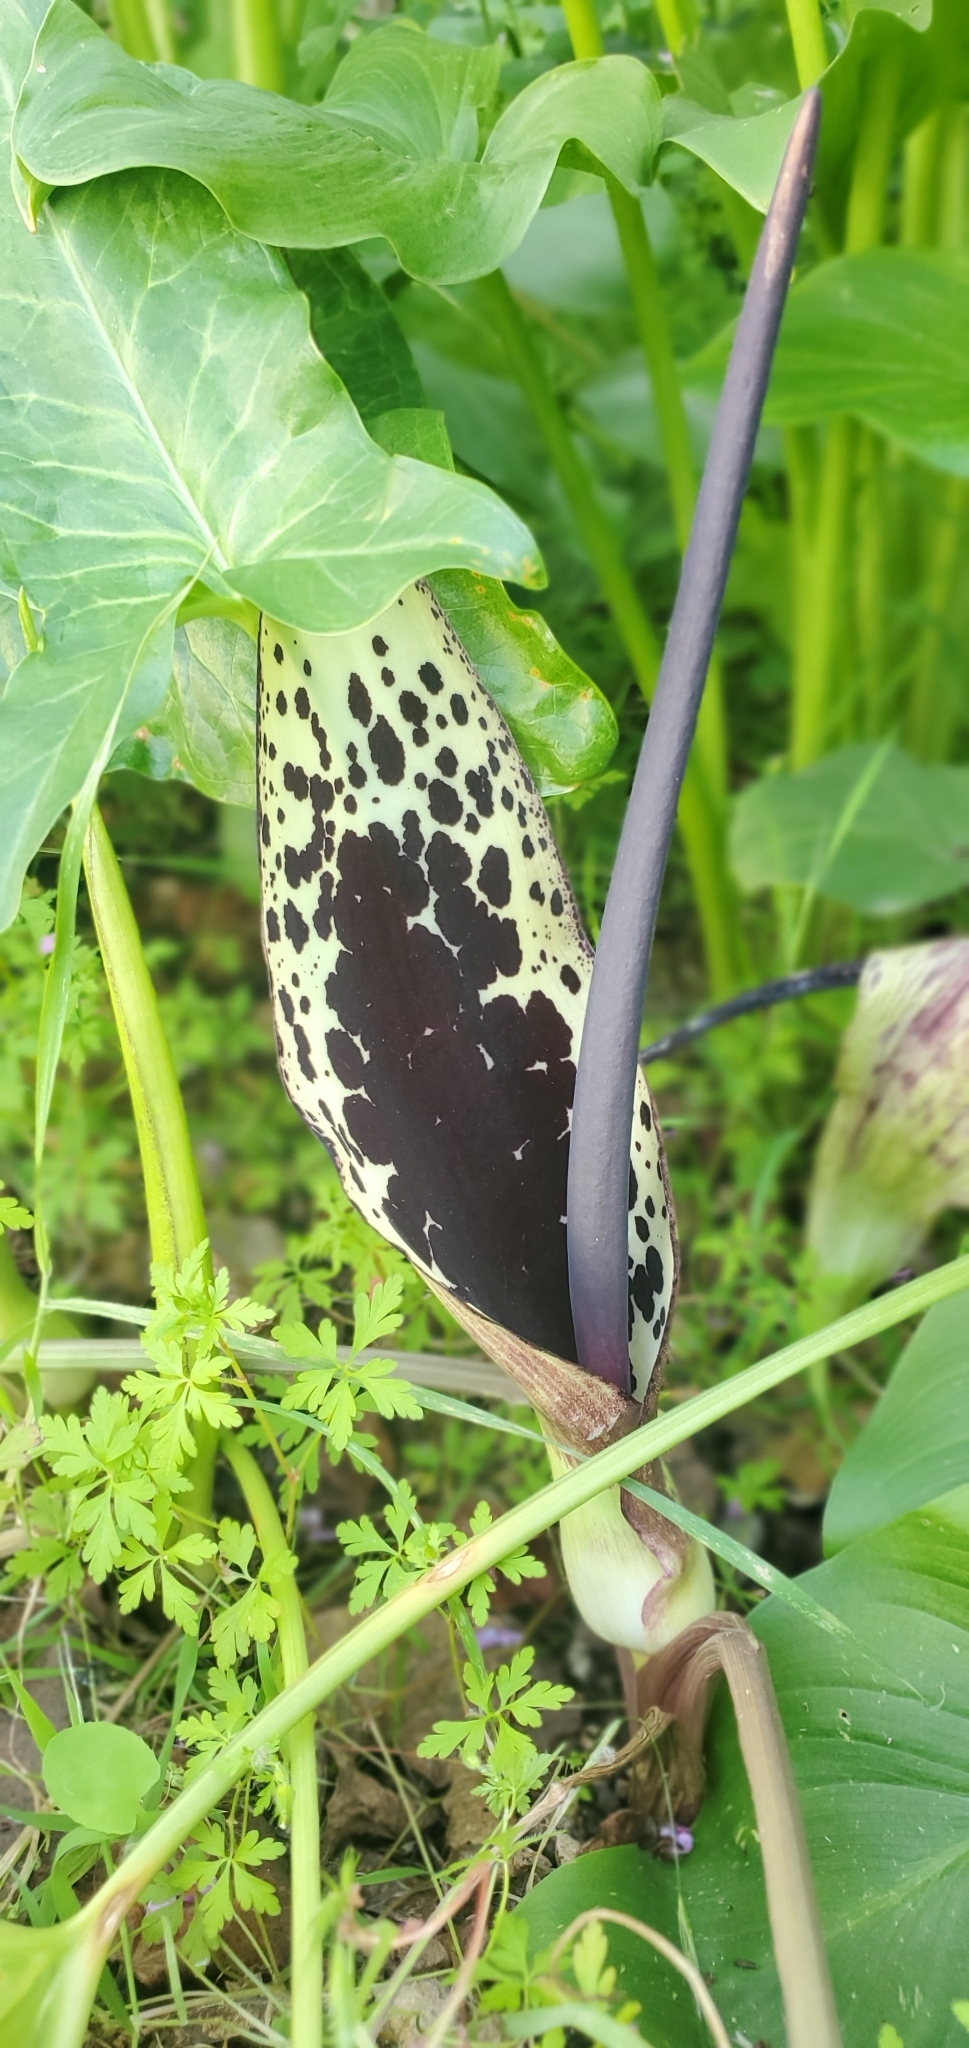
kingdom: Plantae
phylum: Tracheophyta
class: Liliopsida
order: Alismatales
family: Araceae
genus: Arum
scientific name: Arum dioscoridis
